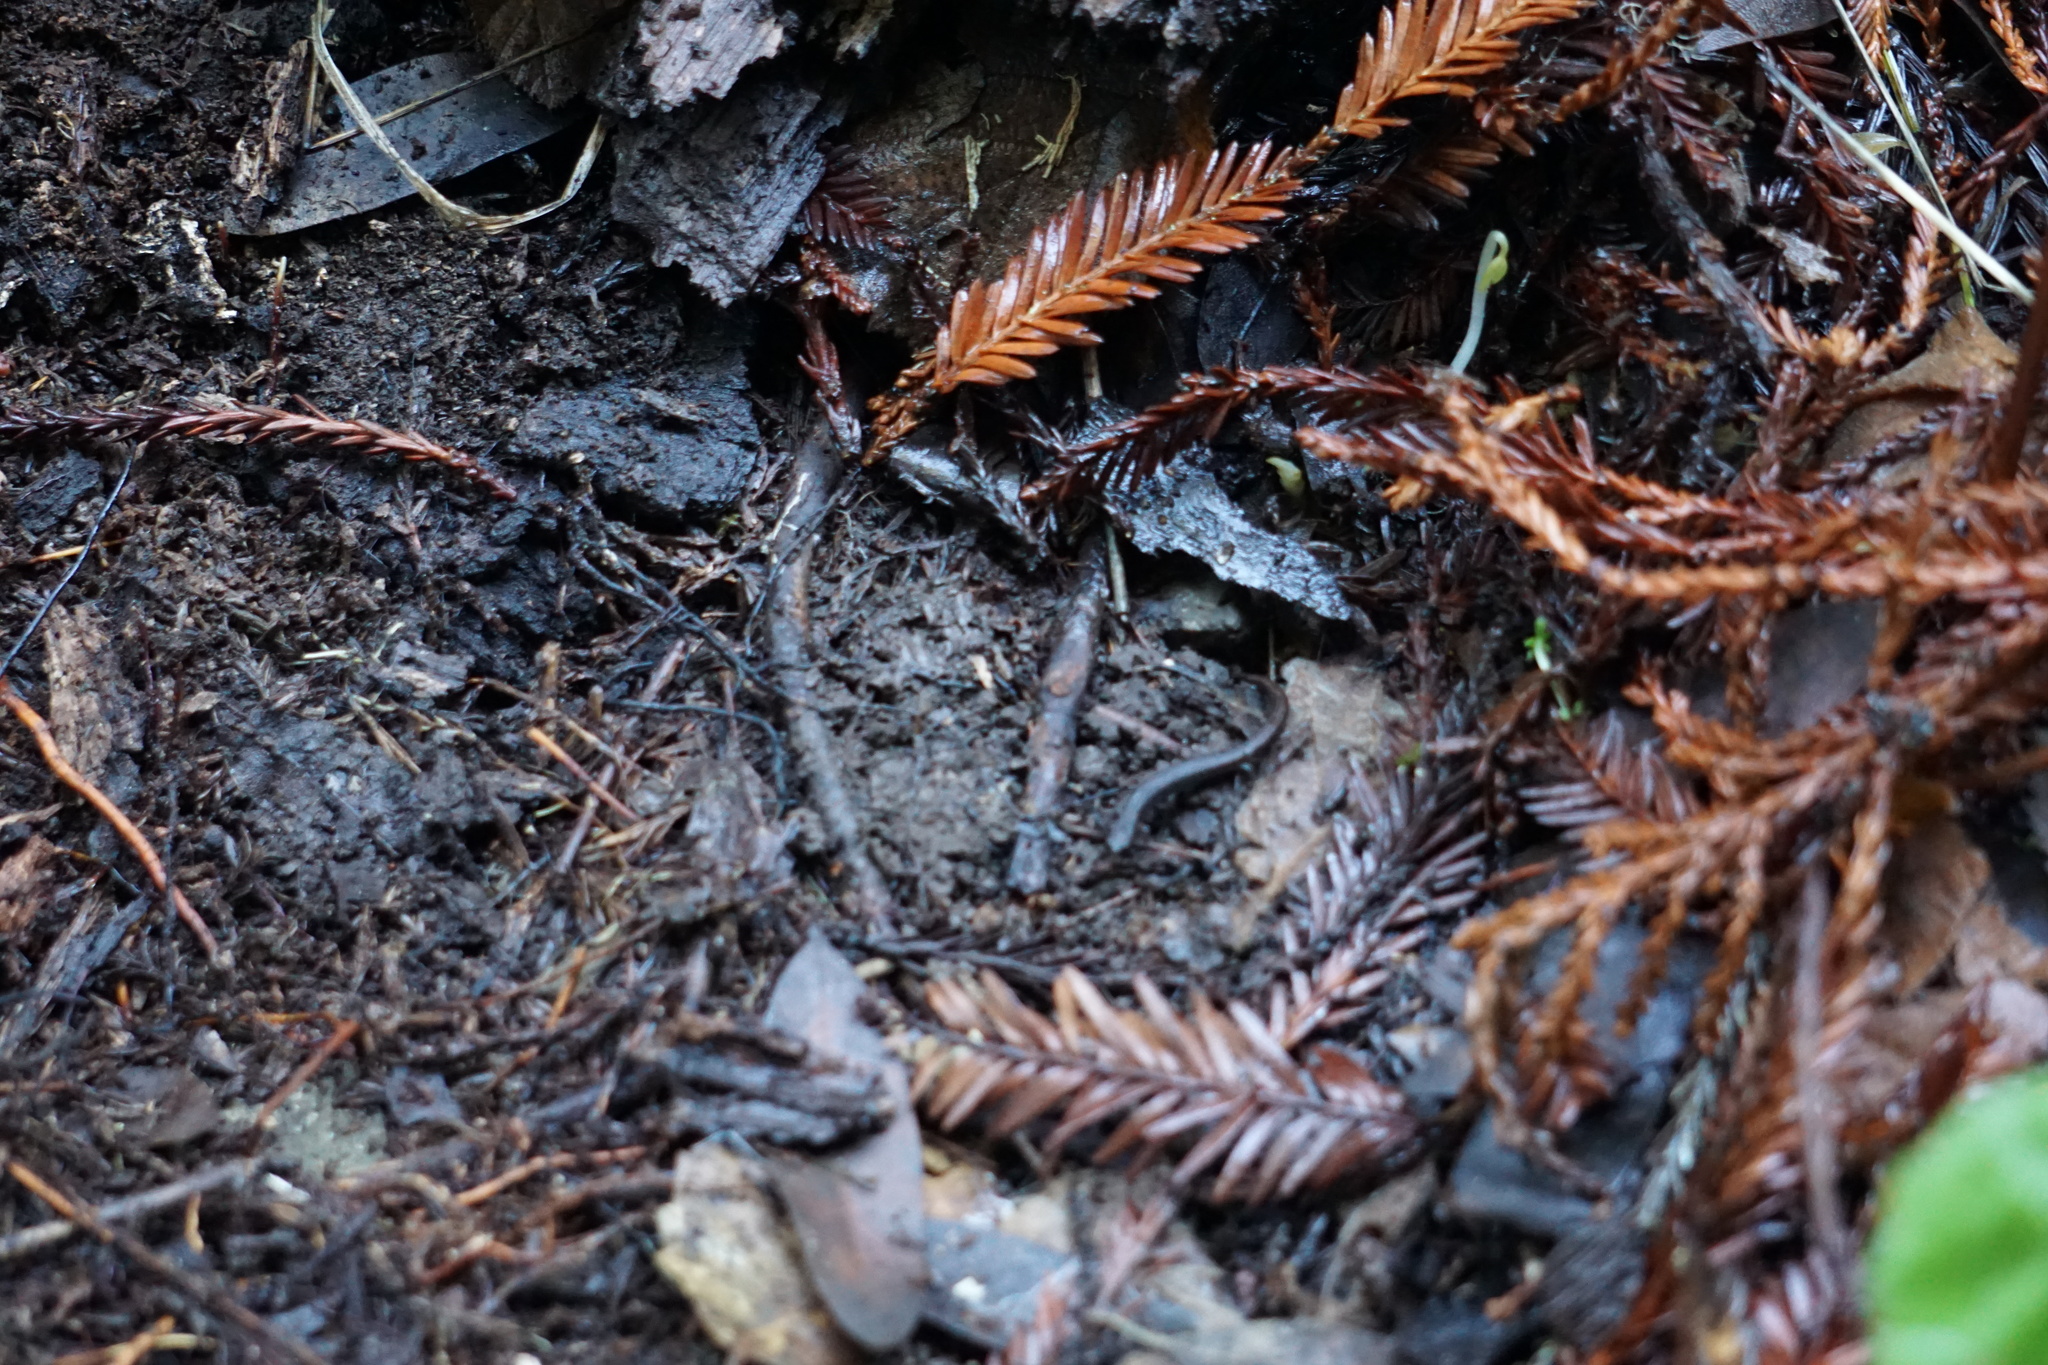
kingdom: Animalia
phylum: Chordata
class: Amphibia
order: Caudata
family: Plethodontidae
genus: Batrachoseps
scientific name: Batrachoseps attenuatus
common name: California slender salamander
